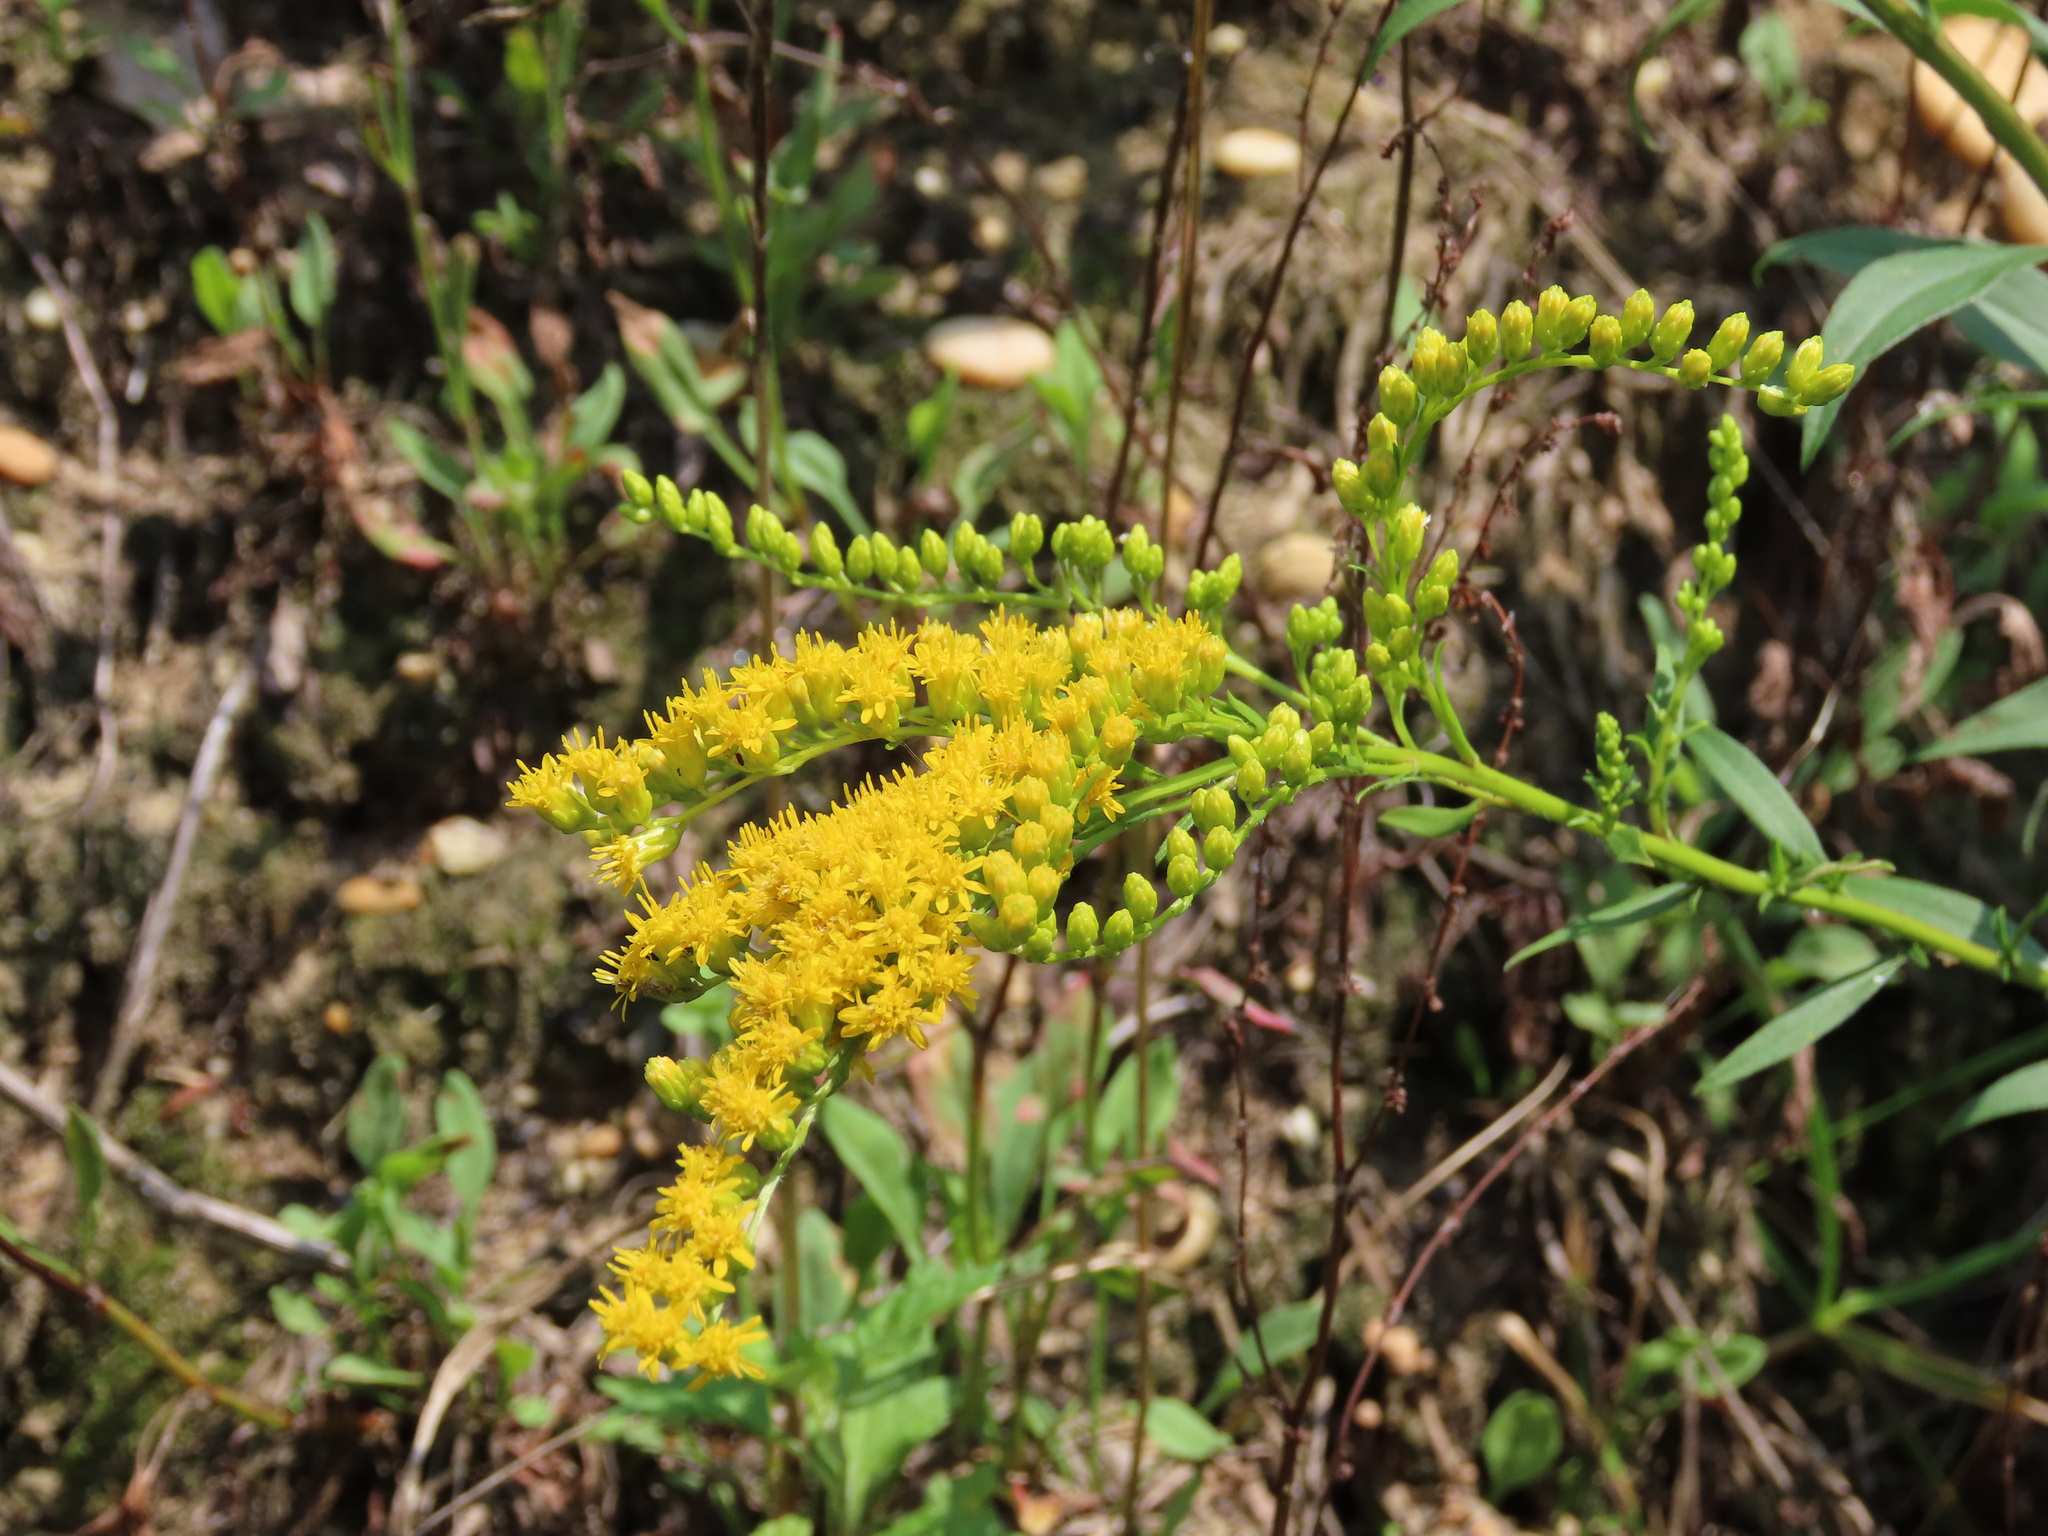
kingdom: Plantae
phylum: Tracheophyta
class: Magnoliopsida
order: Asterales
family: Asteraceae
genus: Solidago
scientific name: Solidago juncea
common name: Early goldenrod
